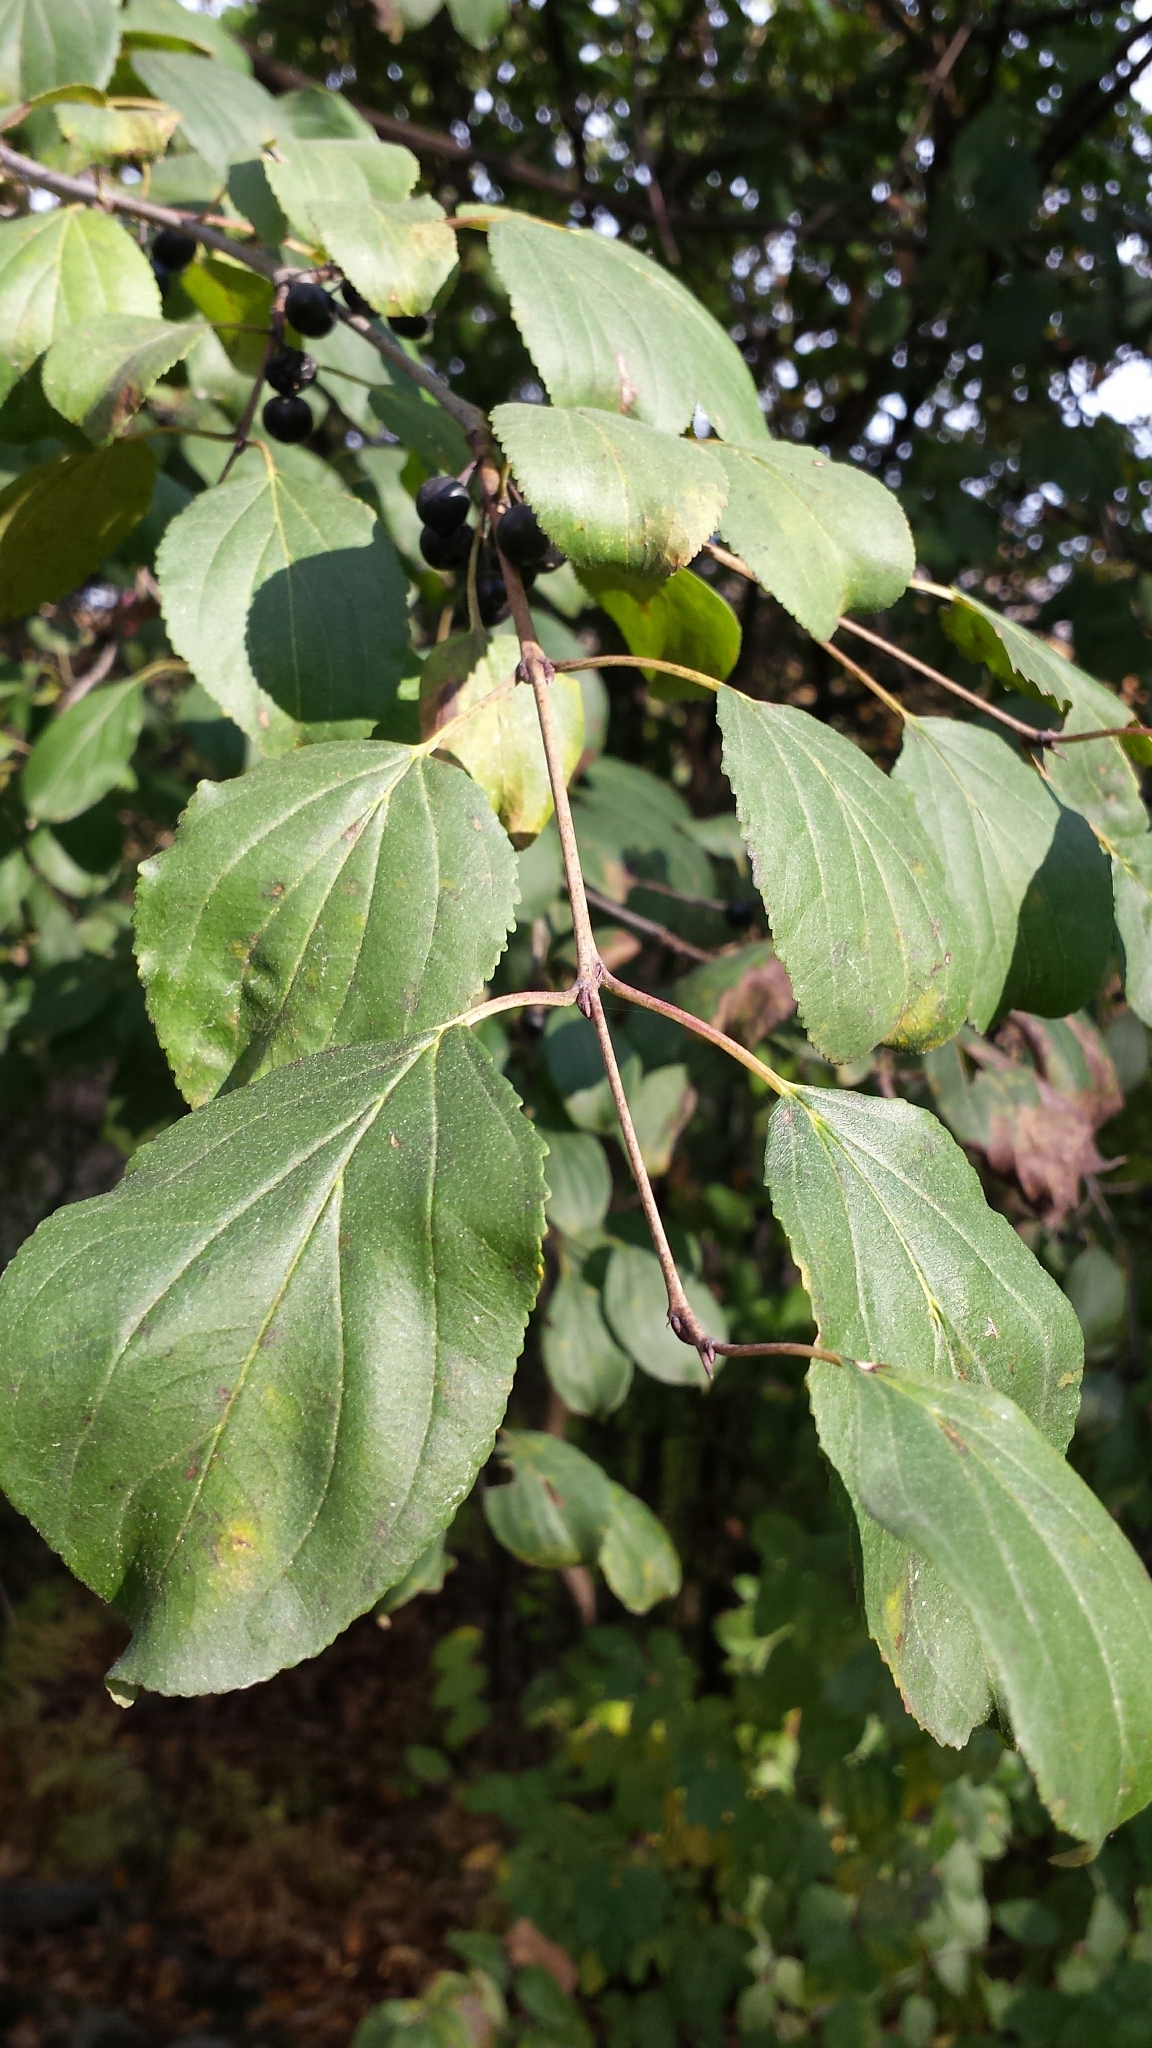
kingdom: Plantae
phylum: Tracheophyta
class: Magnoliopsida
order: Rosales
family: Rhamnaceae
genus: Rhamnus
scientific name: Rhamnus cathartica
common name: Common buckthorn
